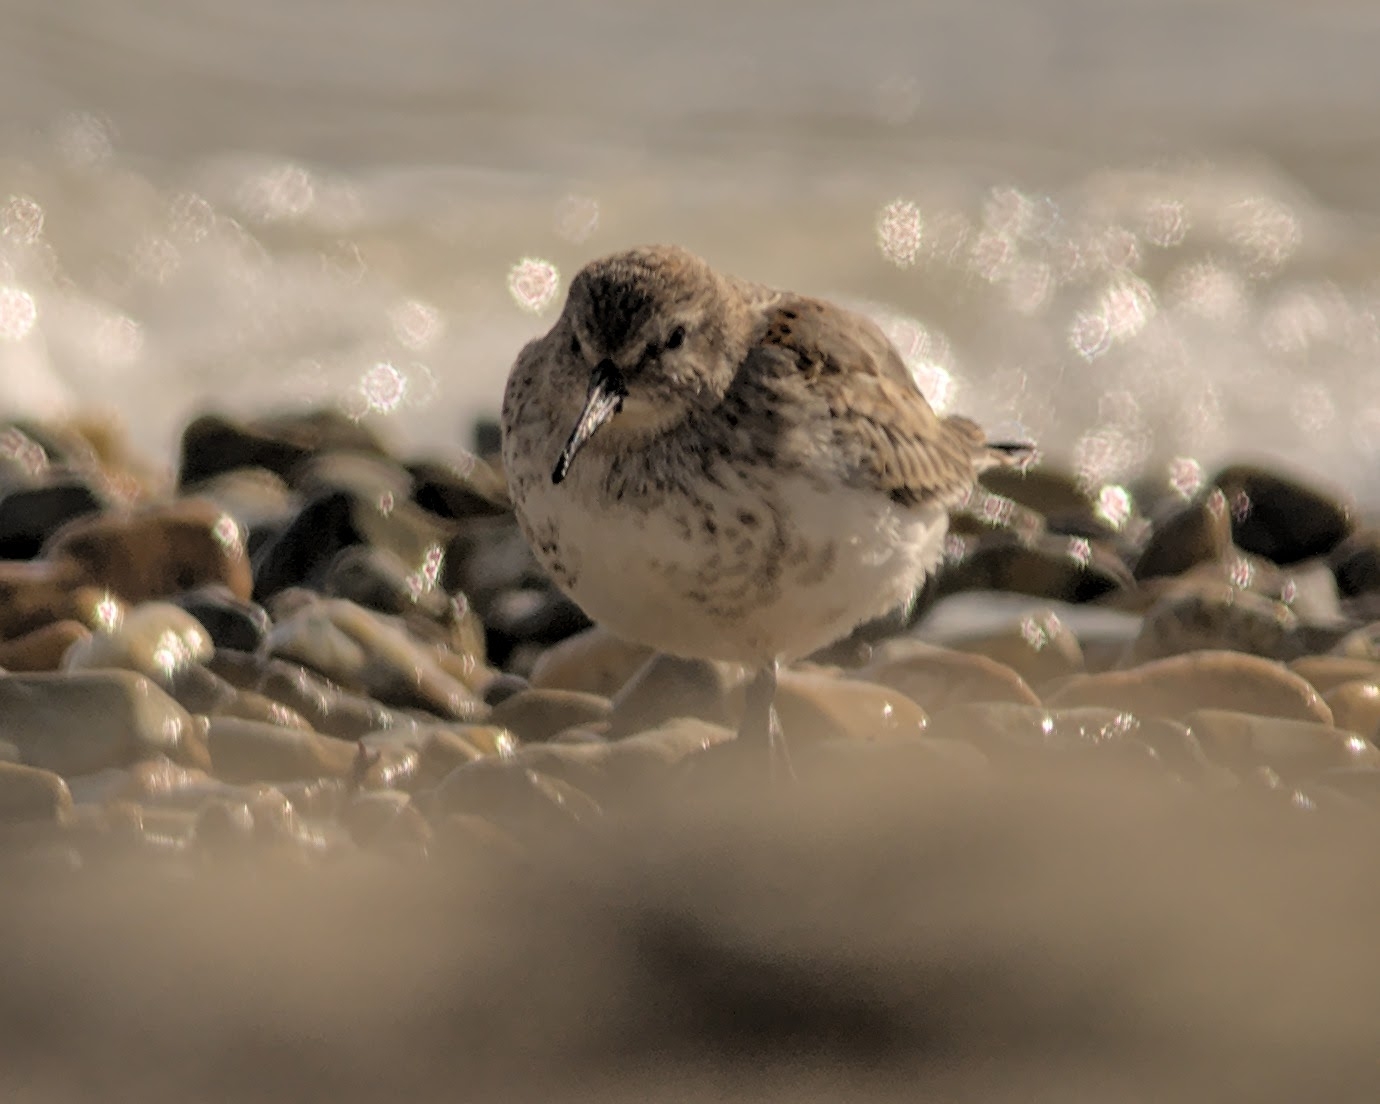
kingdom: Animalia
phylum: Chordata
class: Aves
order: Charadriiformes
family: Scolopacidae
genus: Calidris
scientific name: Calidris alpina
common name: Dunlin
